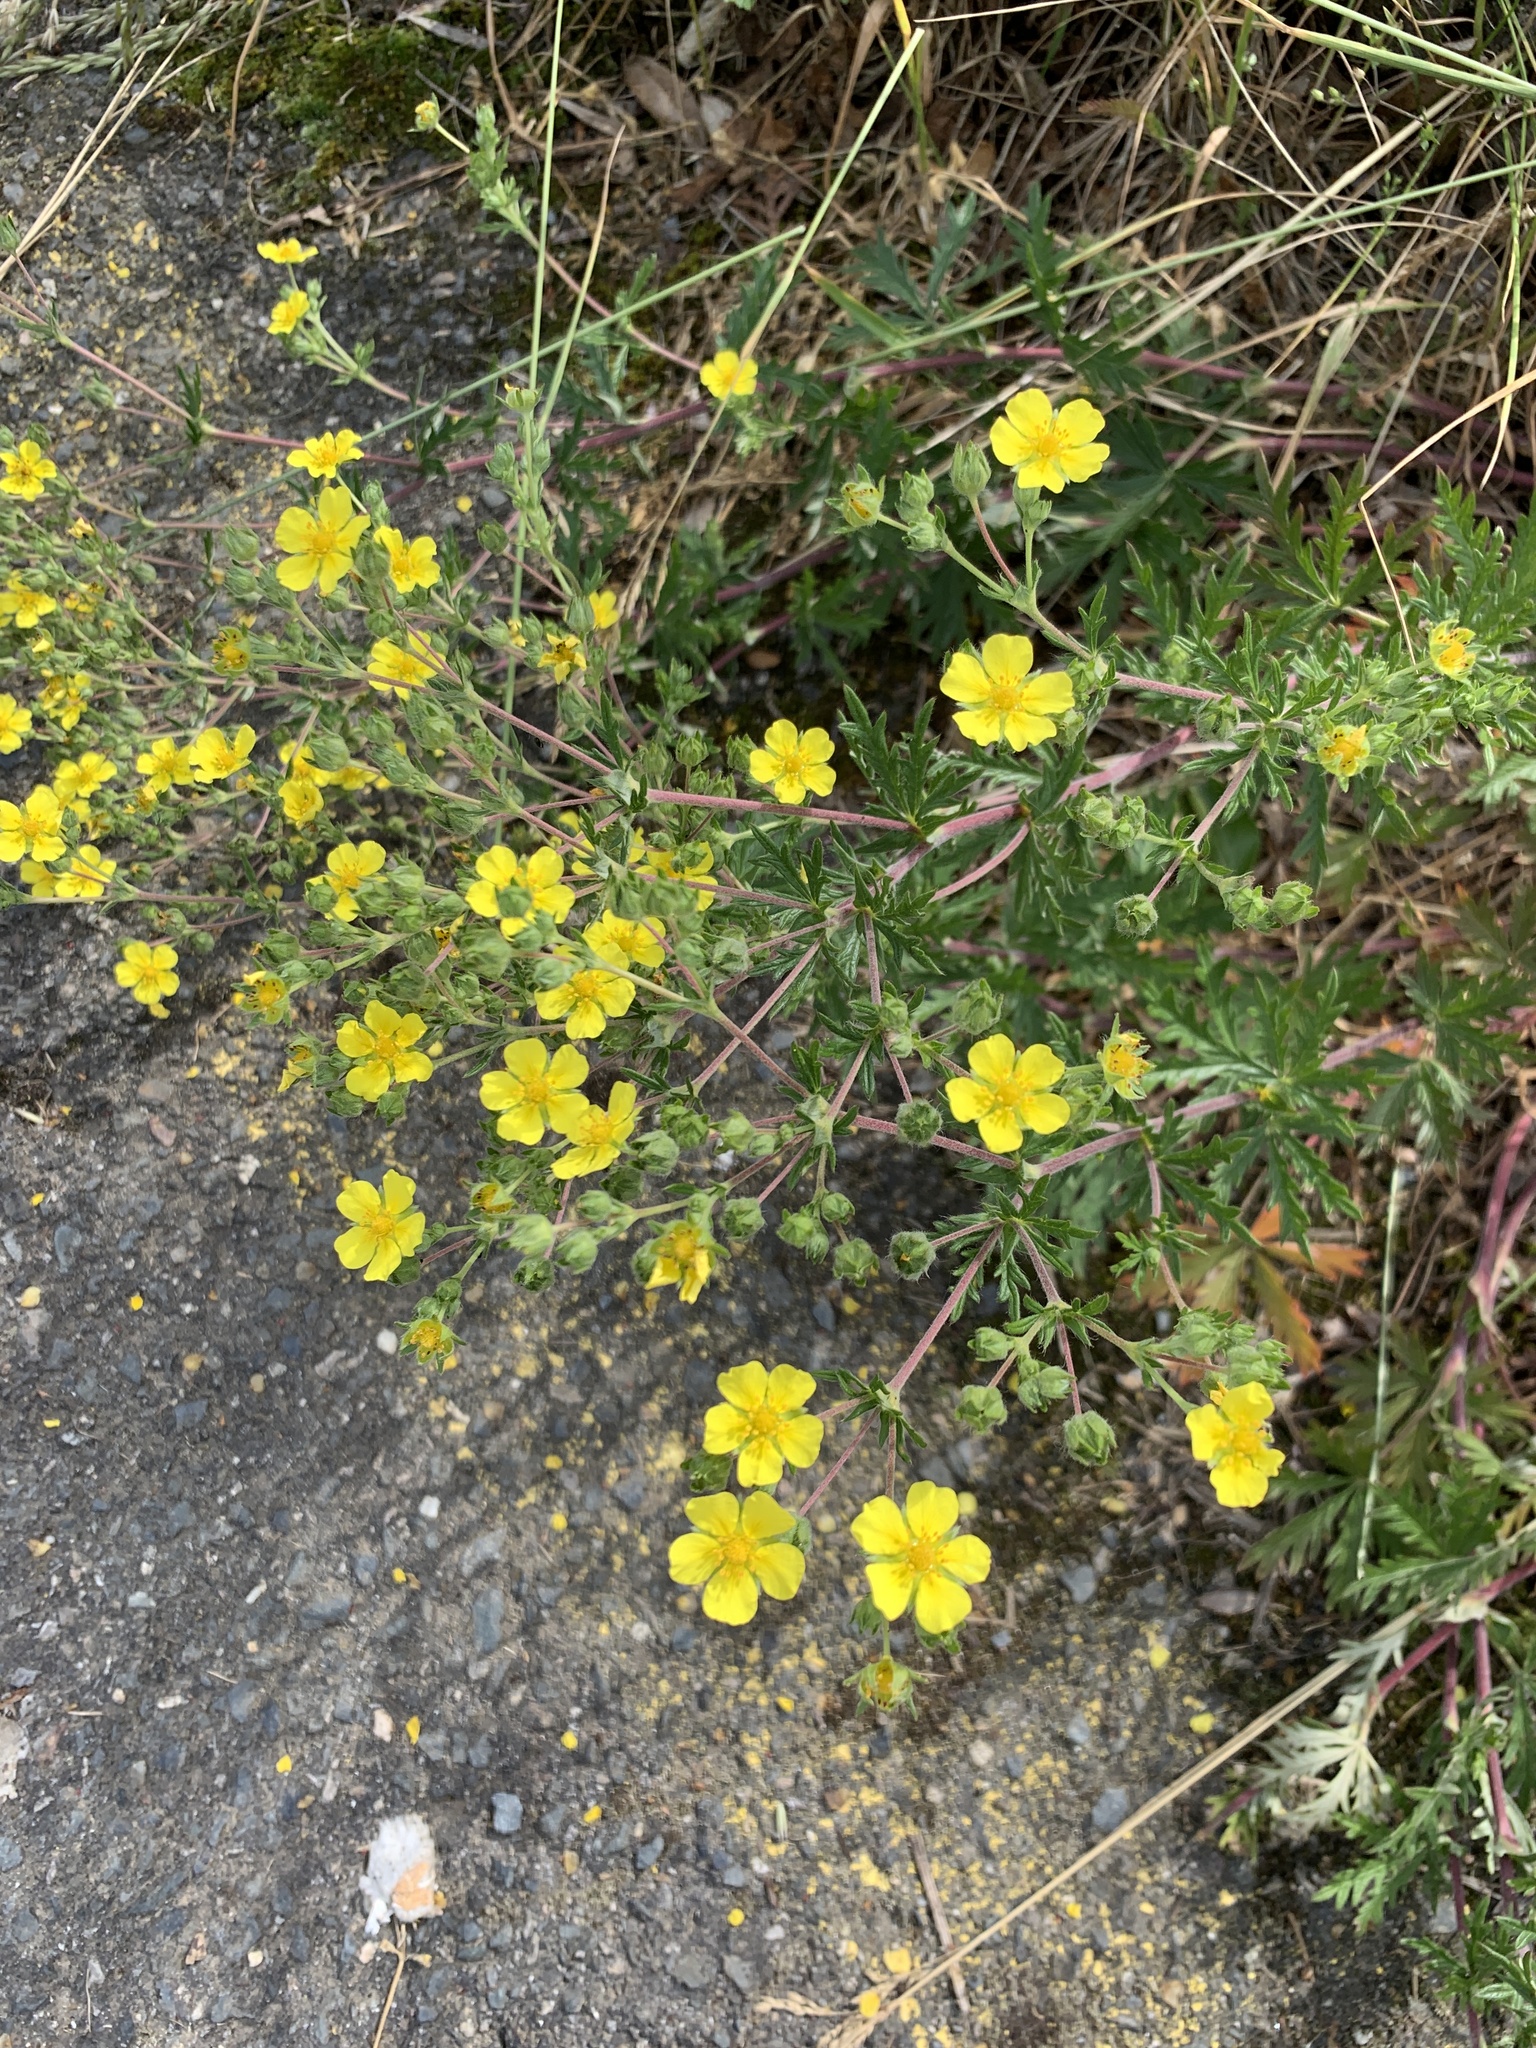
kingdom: Plantae
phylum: Tracheophyta
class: Magnoliopsida
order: Rosales
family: Rosaceae
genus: Potentilla
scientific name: Potentilla argentea
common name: Hoary cinquefoil
